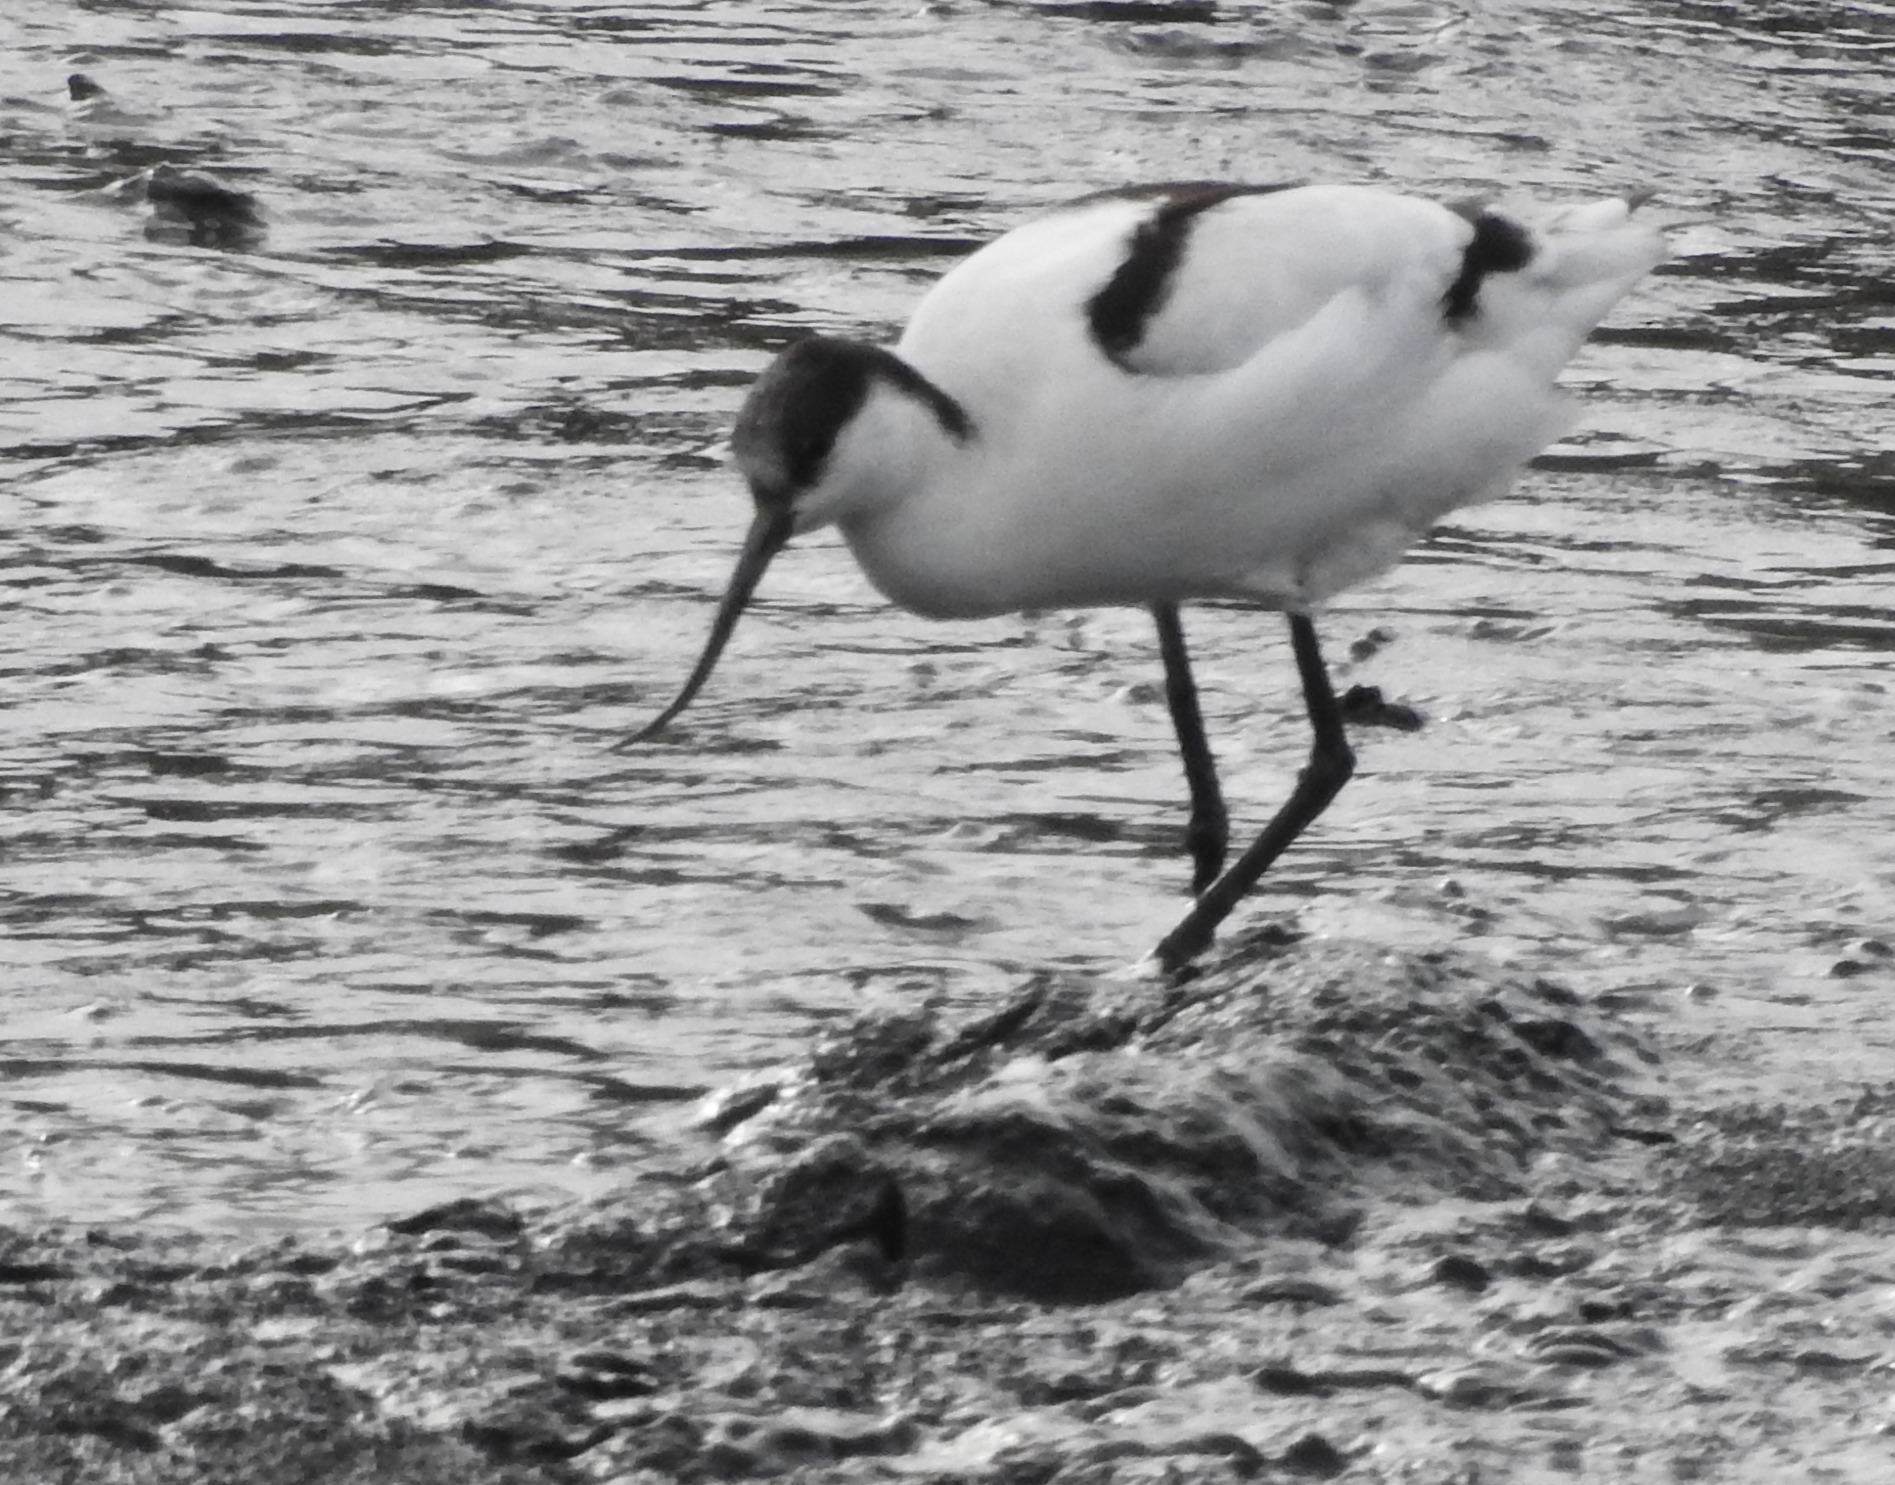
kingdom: Animalia
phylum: Chordata
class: Aves
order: Charadriiformes
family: Recurvirostridae
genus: Recurvirostra
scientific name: Recurvirostra avosetta
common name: Pied avocet
